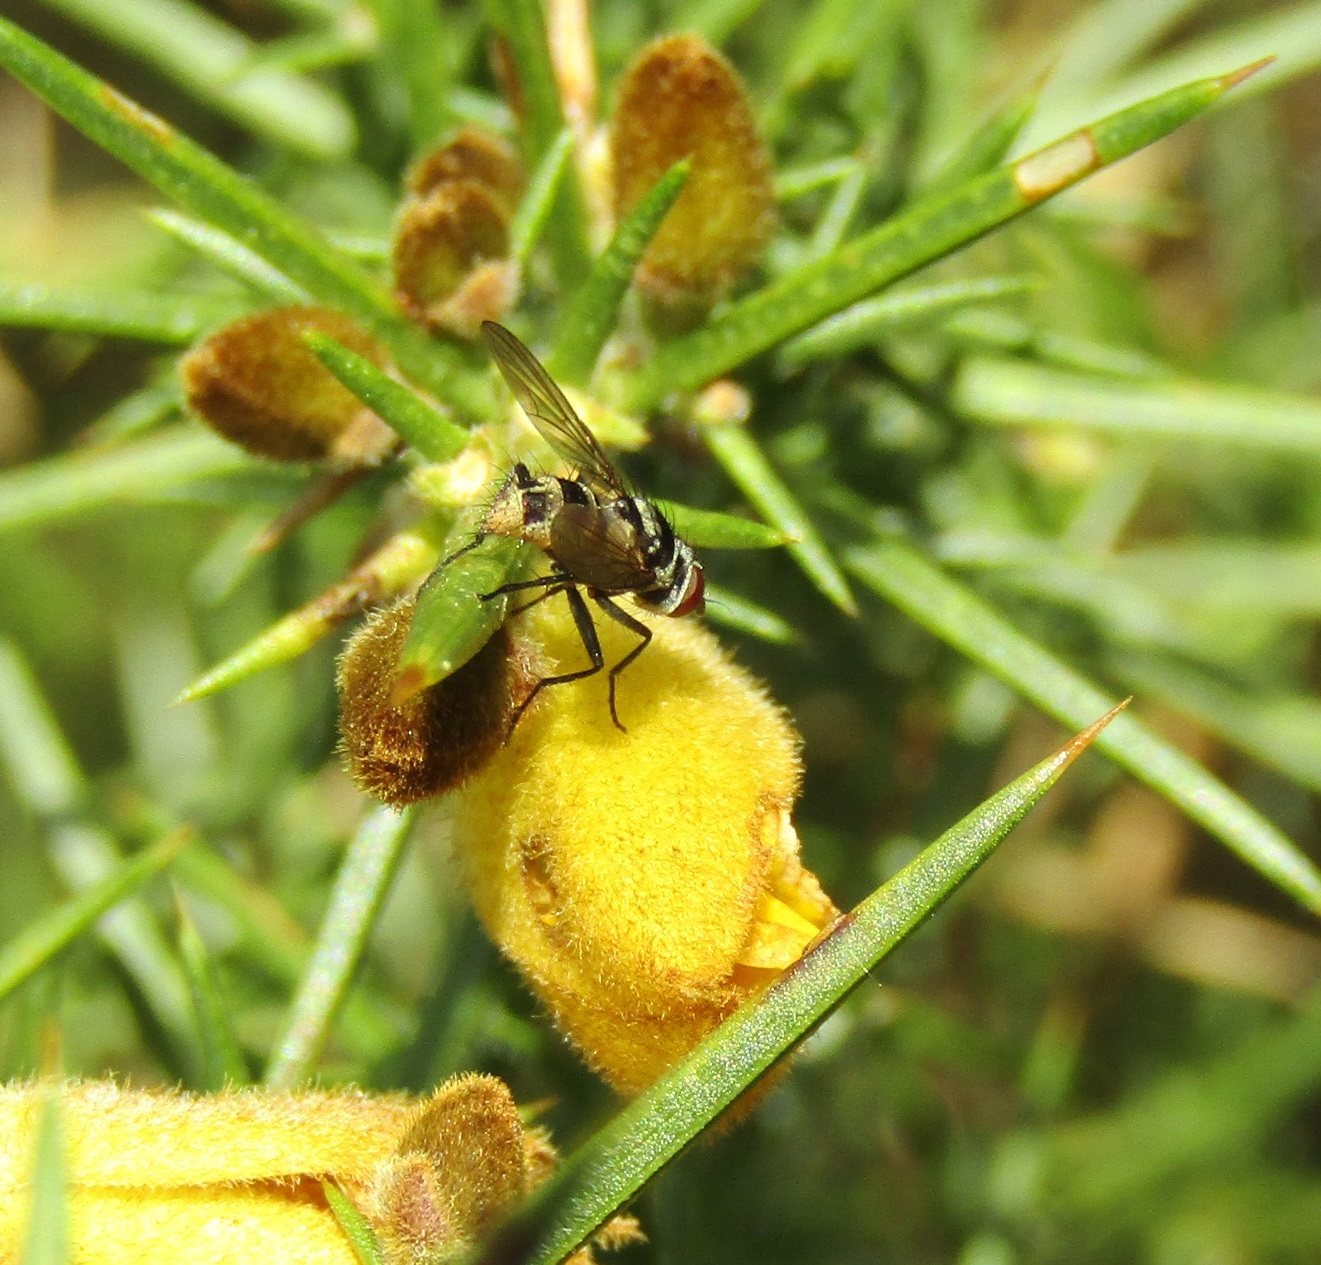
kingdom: Animalia
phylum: Arthropoda
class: Insecta
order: Diptera
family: Tachinidae
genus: Trigonospila
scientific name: Trigonospila brevifacies
